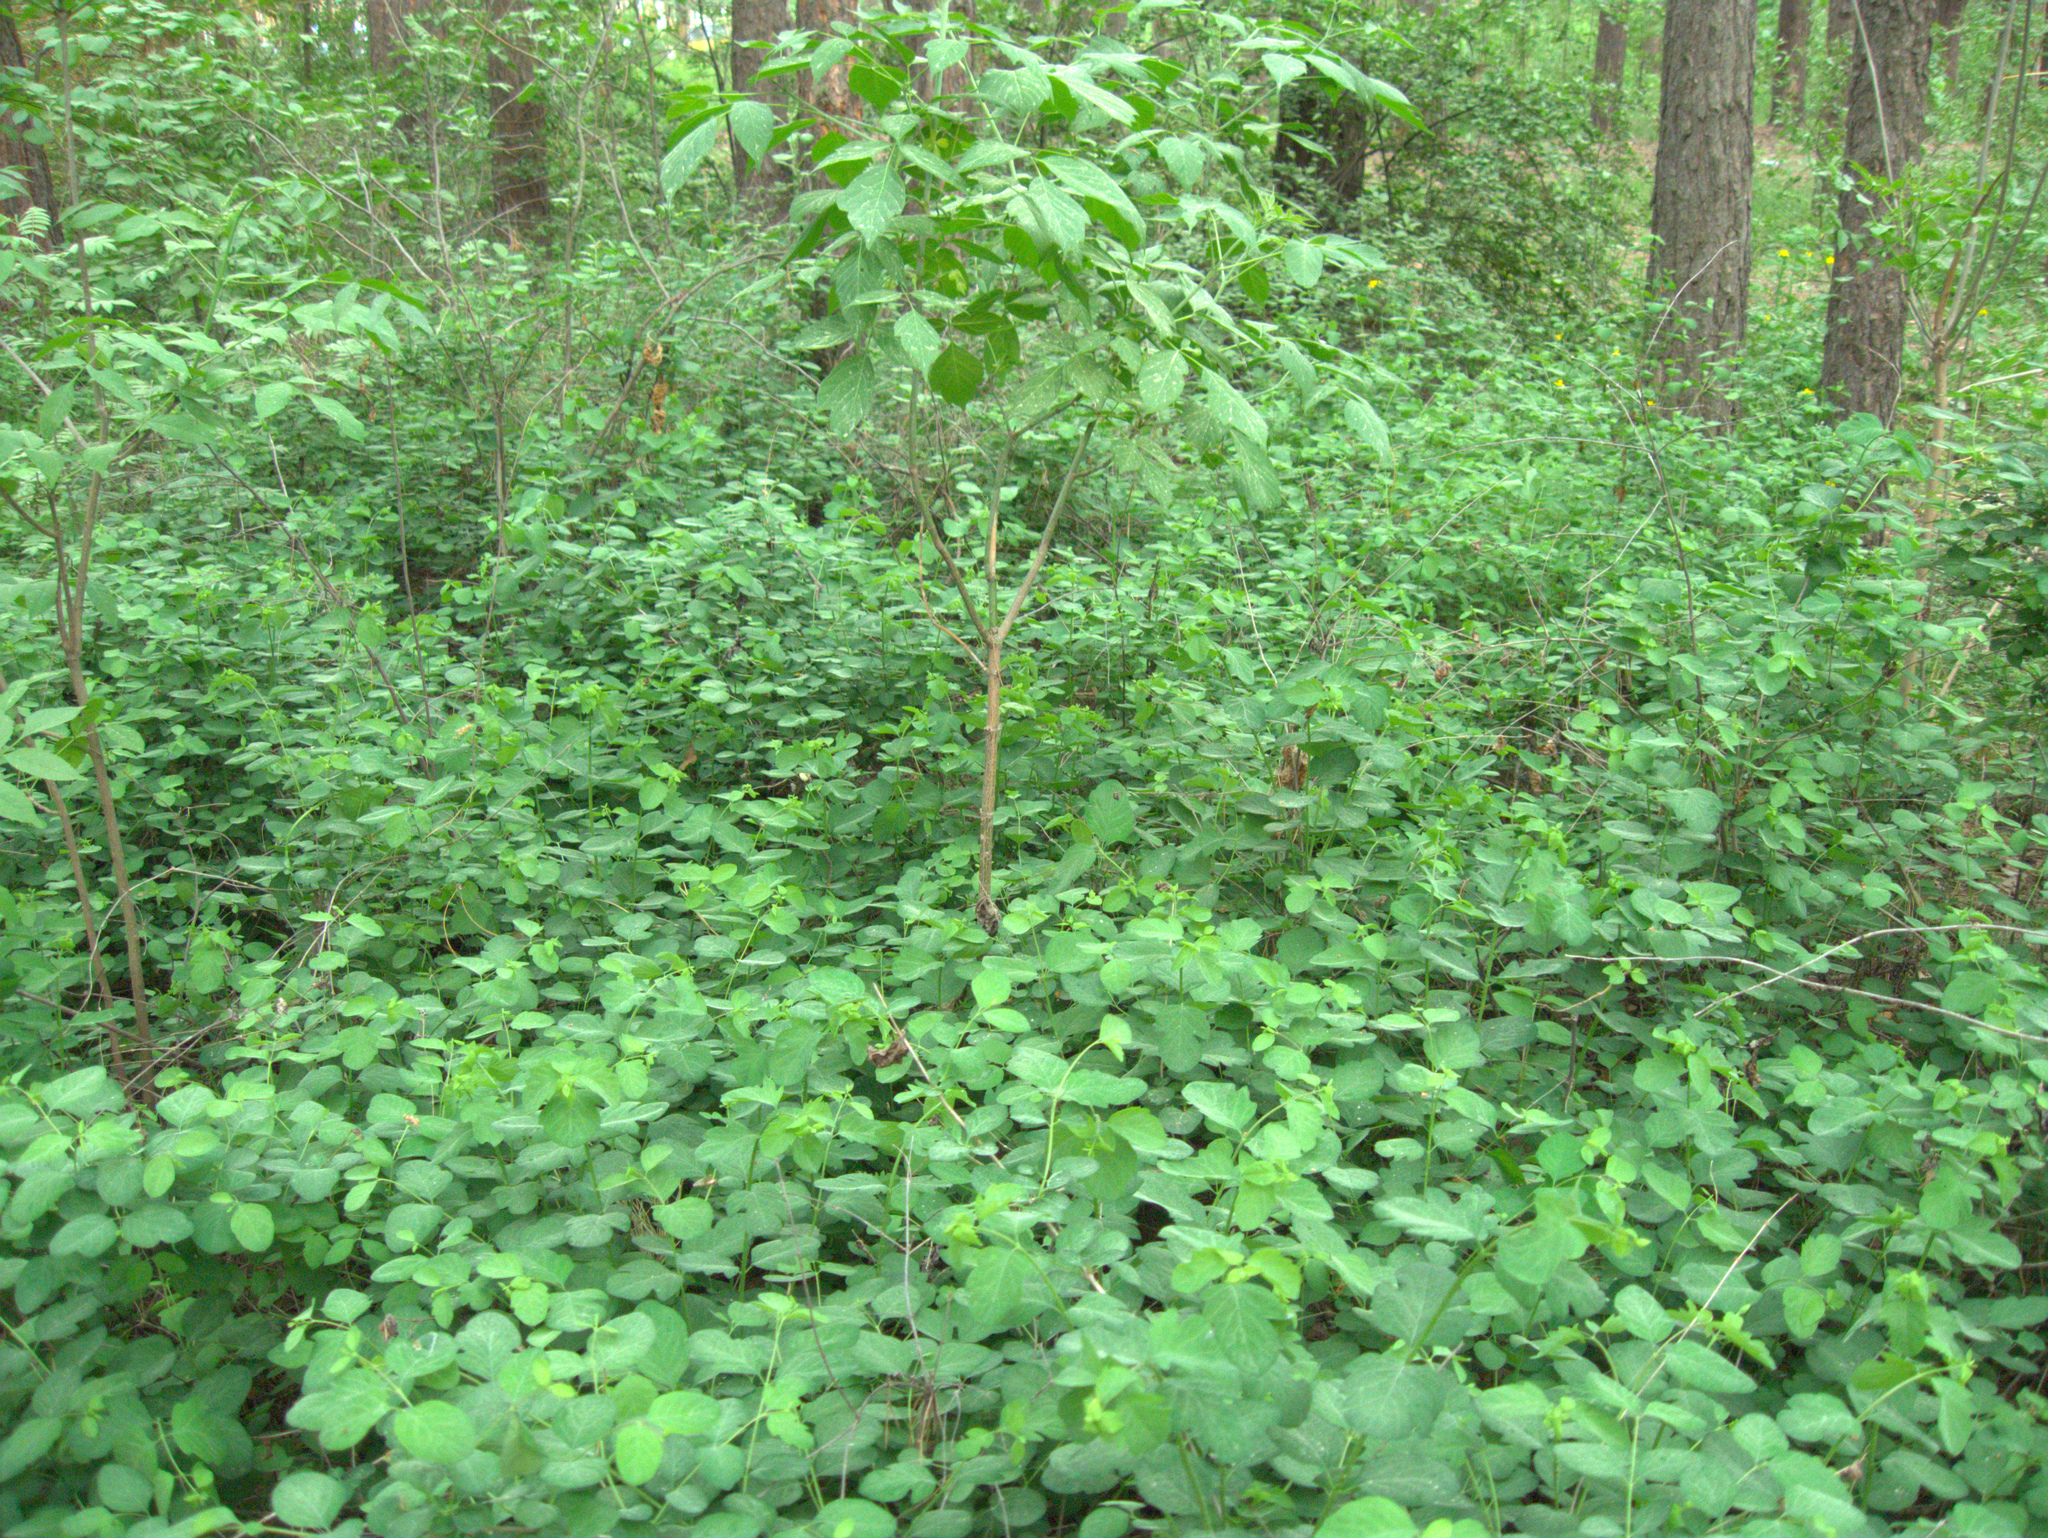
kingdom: Plantae
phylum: Tracheophyta
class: Magnoliopsida
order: Dipsacales
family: Caprifoliaceae
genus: Symphoricarpos
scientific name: Symphoricarpos albus
